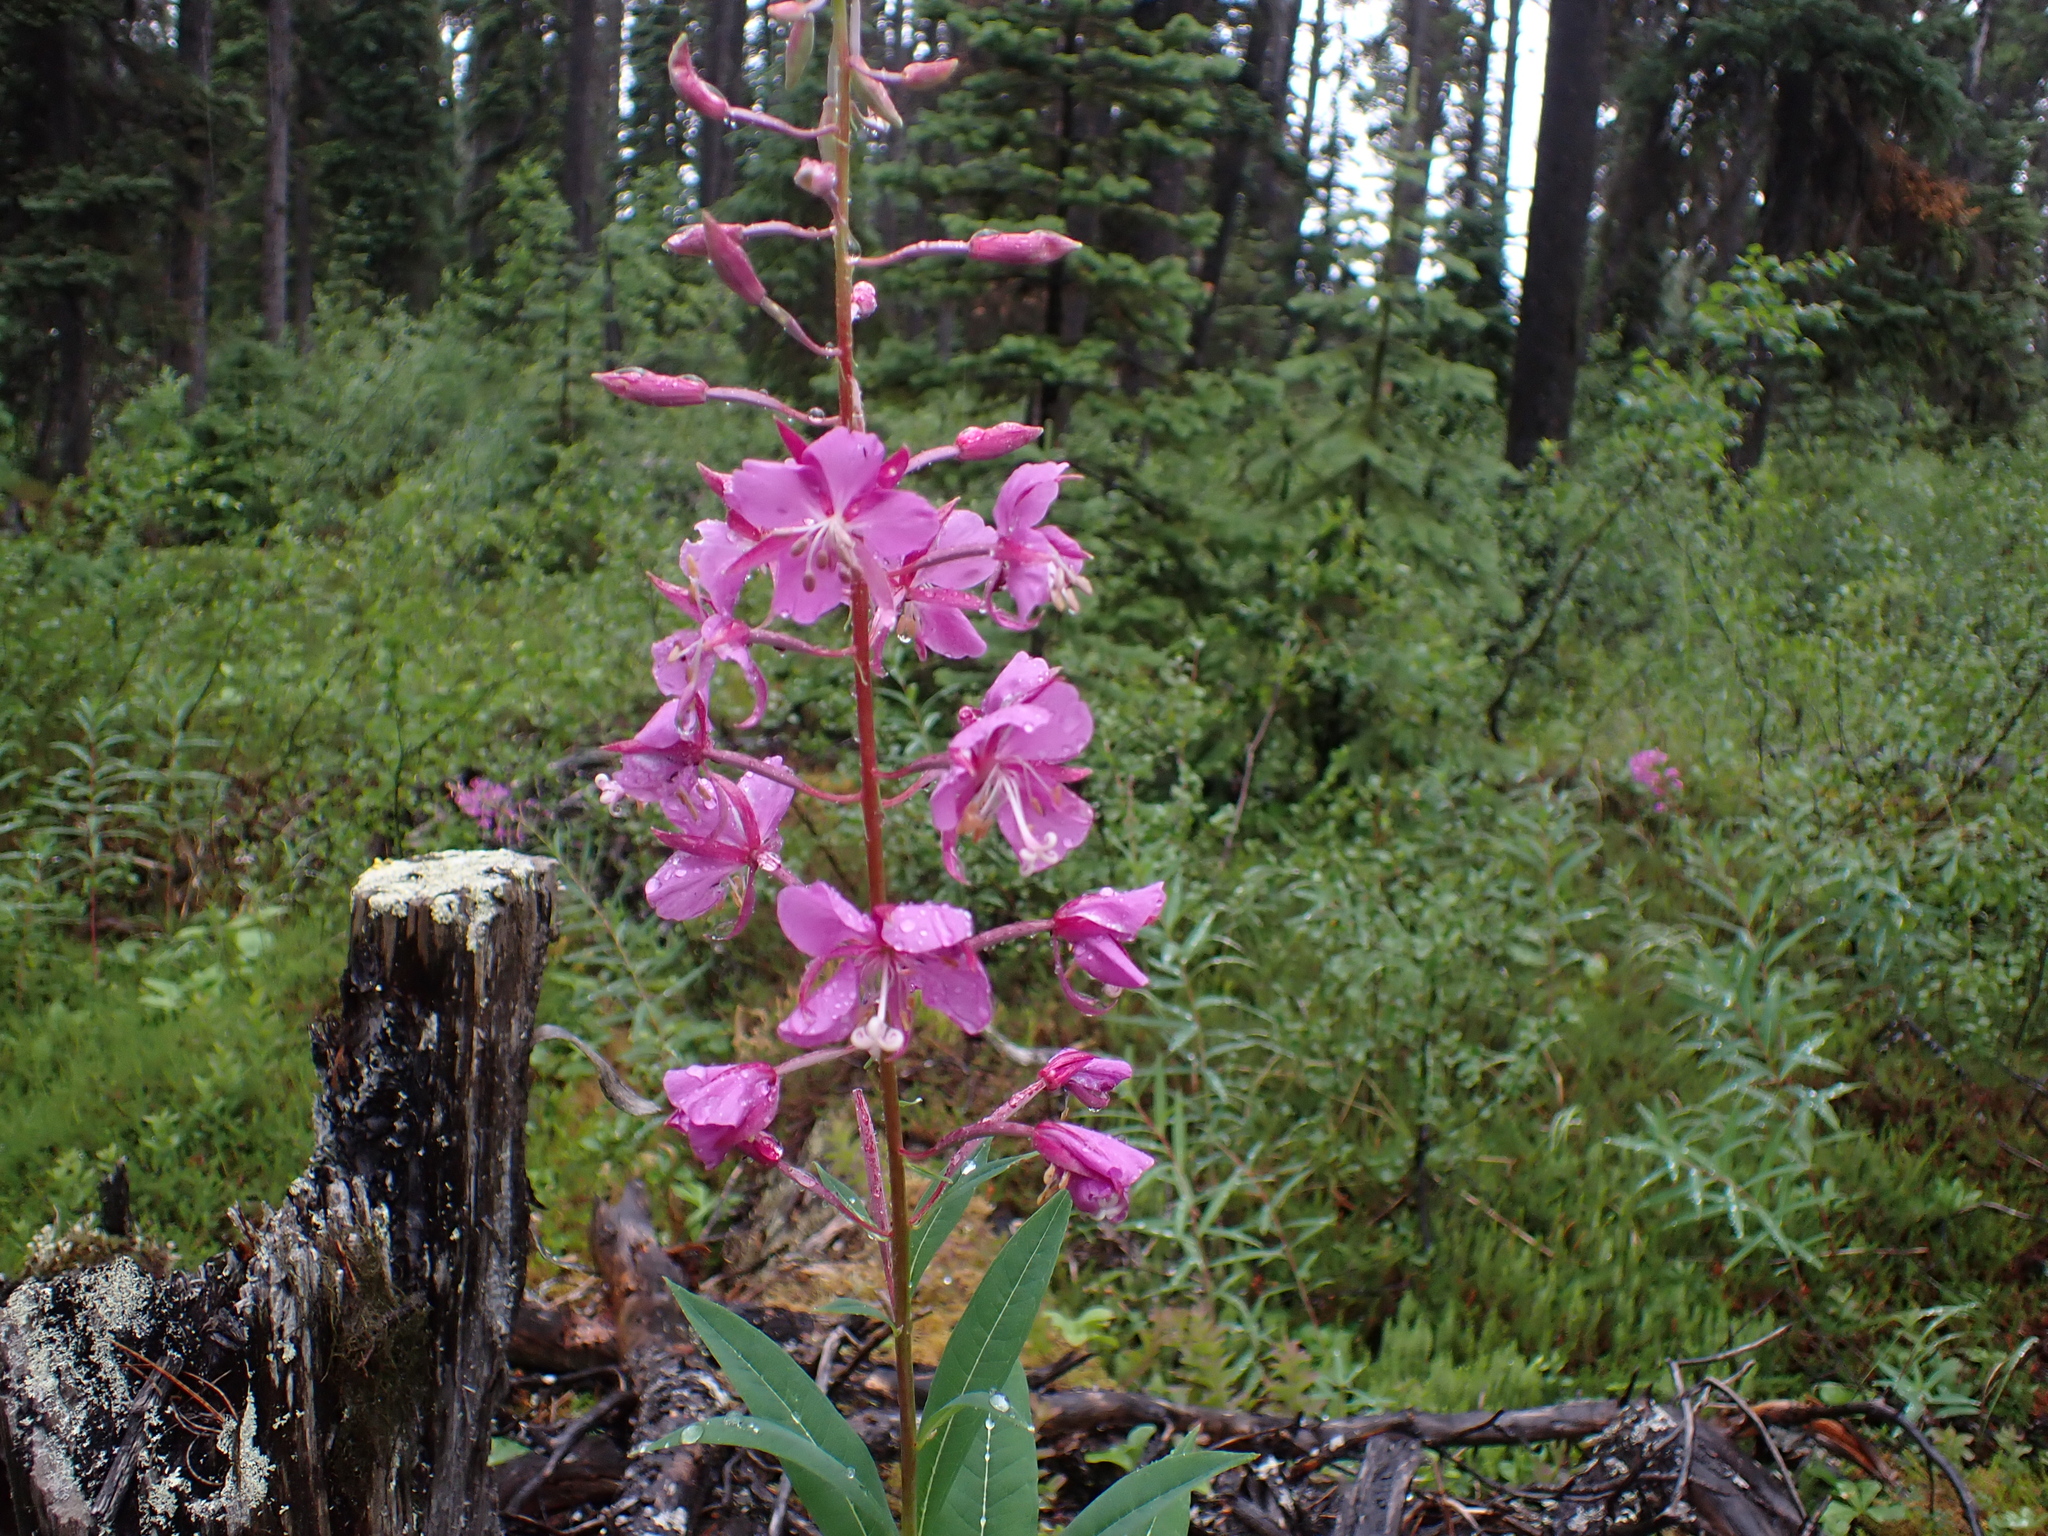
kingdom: Plantae
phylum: Tracheophyta
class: Magnoliopsida
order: Myrtales
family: Onagraceae
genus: Chamaenerion
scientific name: Chamaenerion angustifolium
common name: Fireweed
